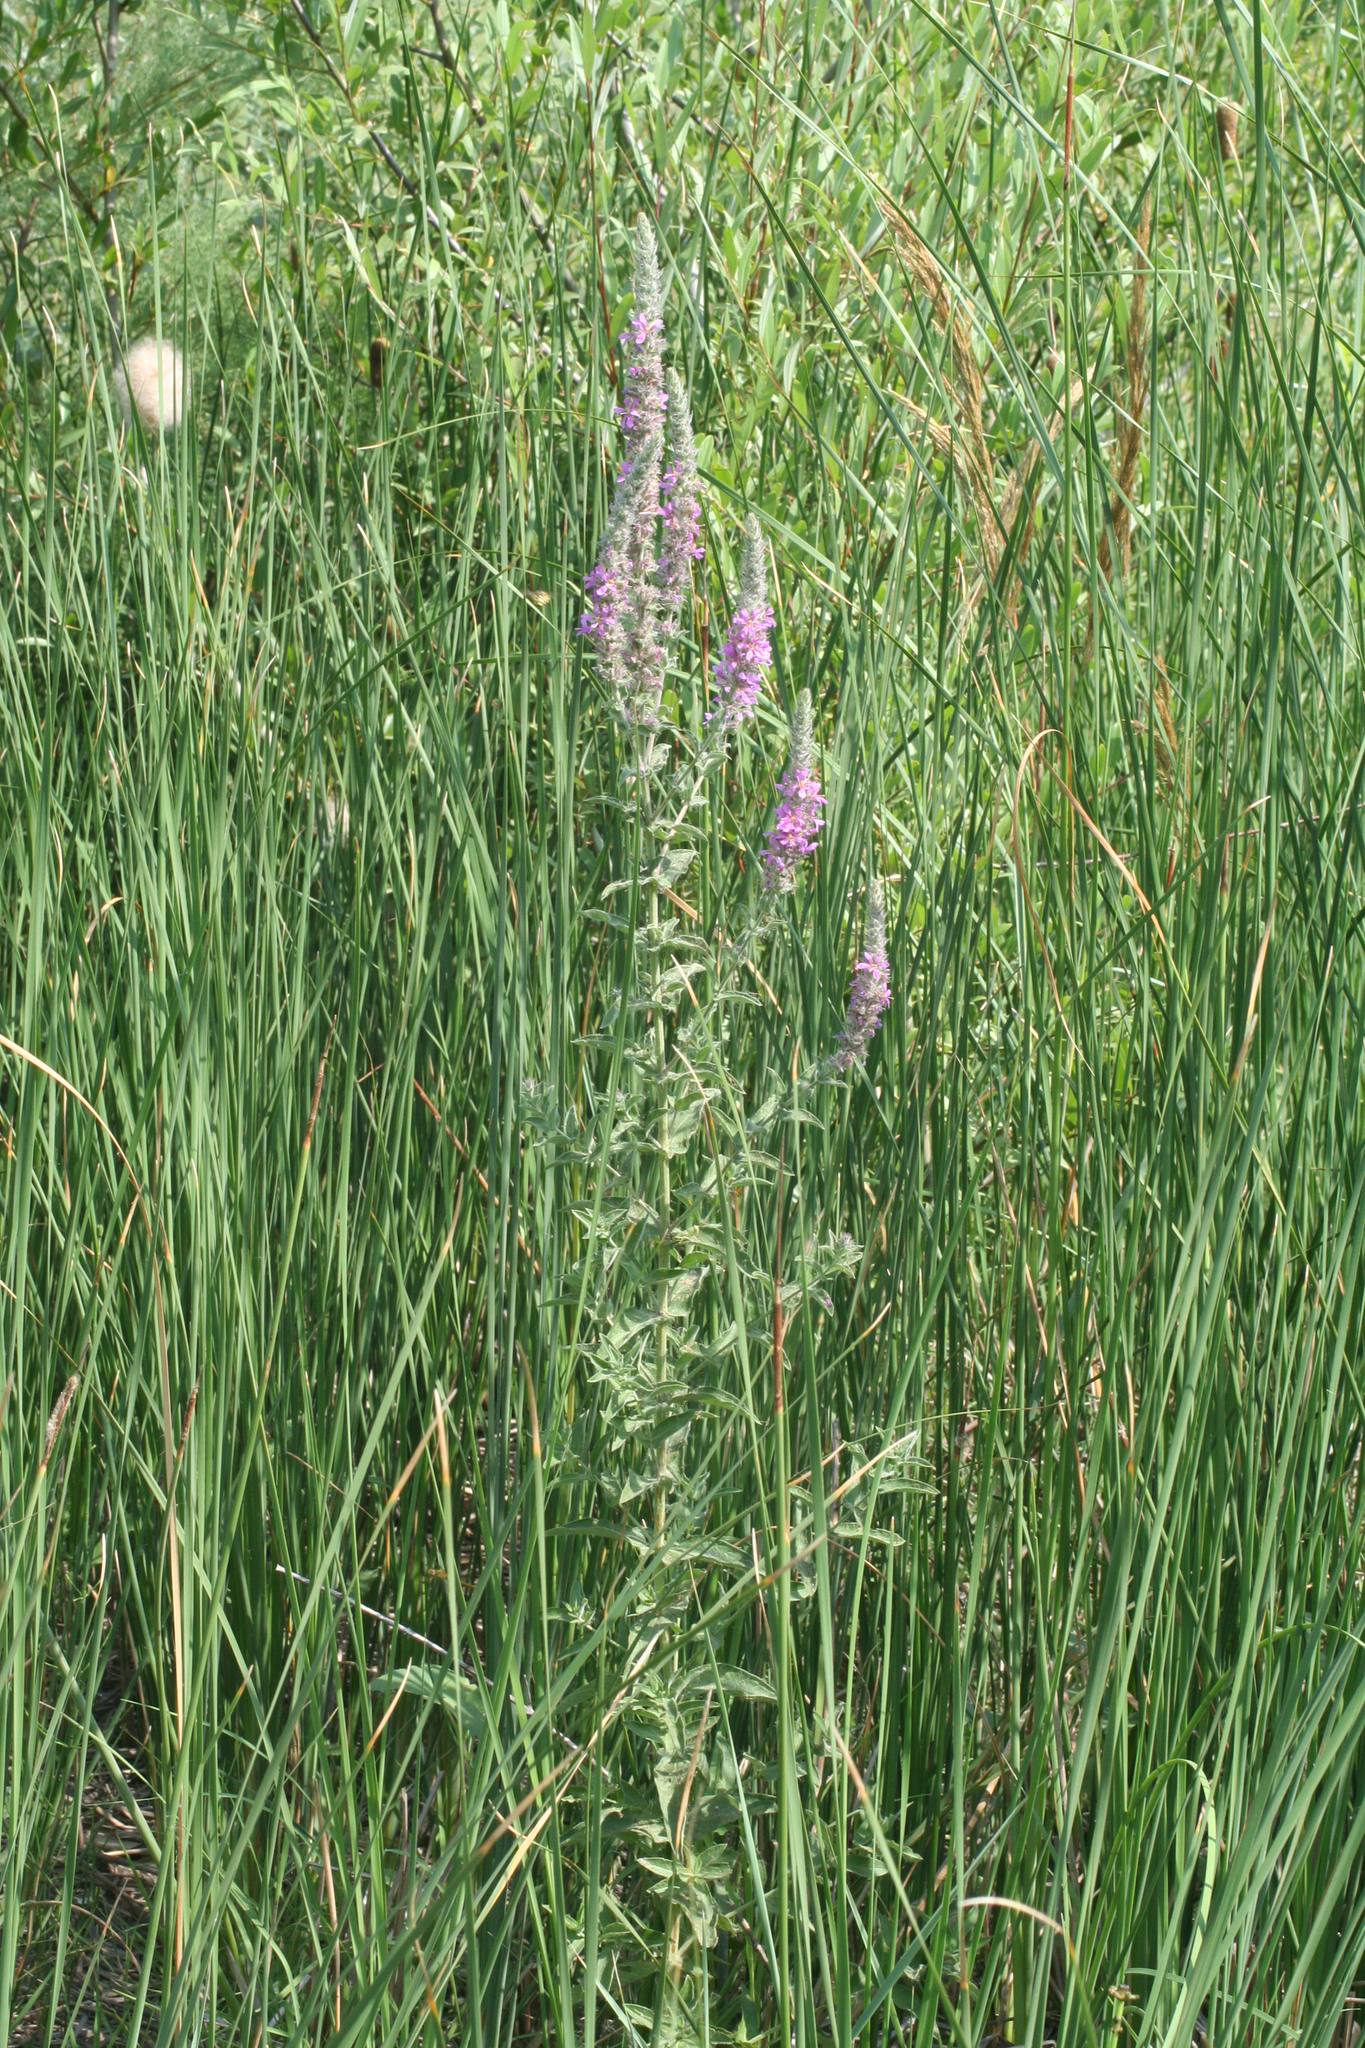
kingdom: Plantae
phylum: Tracheophyta
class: Magnoliopsida
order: Myrtales
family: Lythraceae
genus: Lythrum
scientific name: Lythrum salicaria
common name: Purple loosestrife
